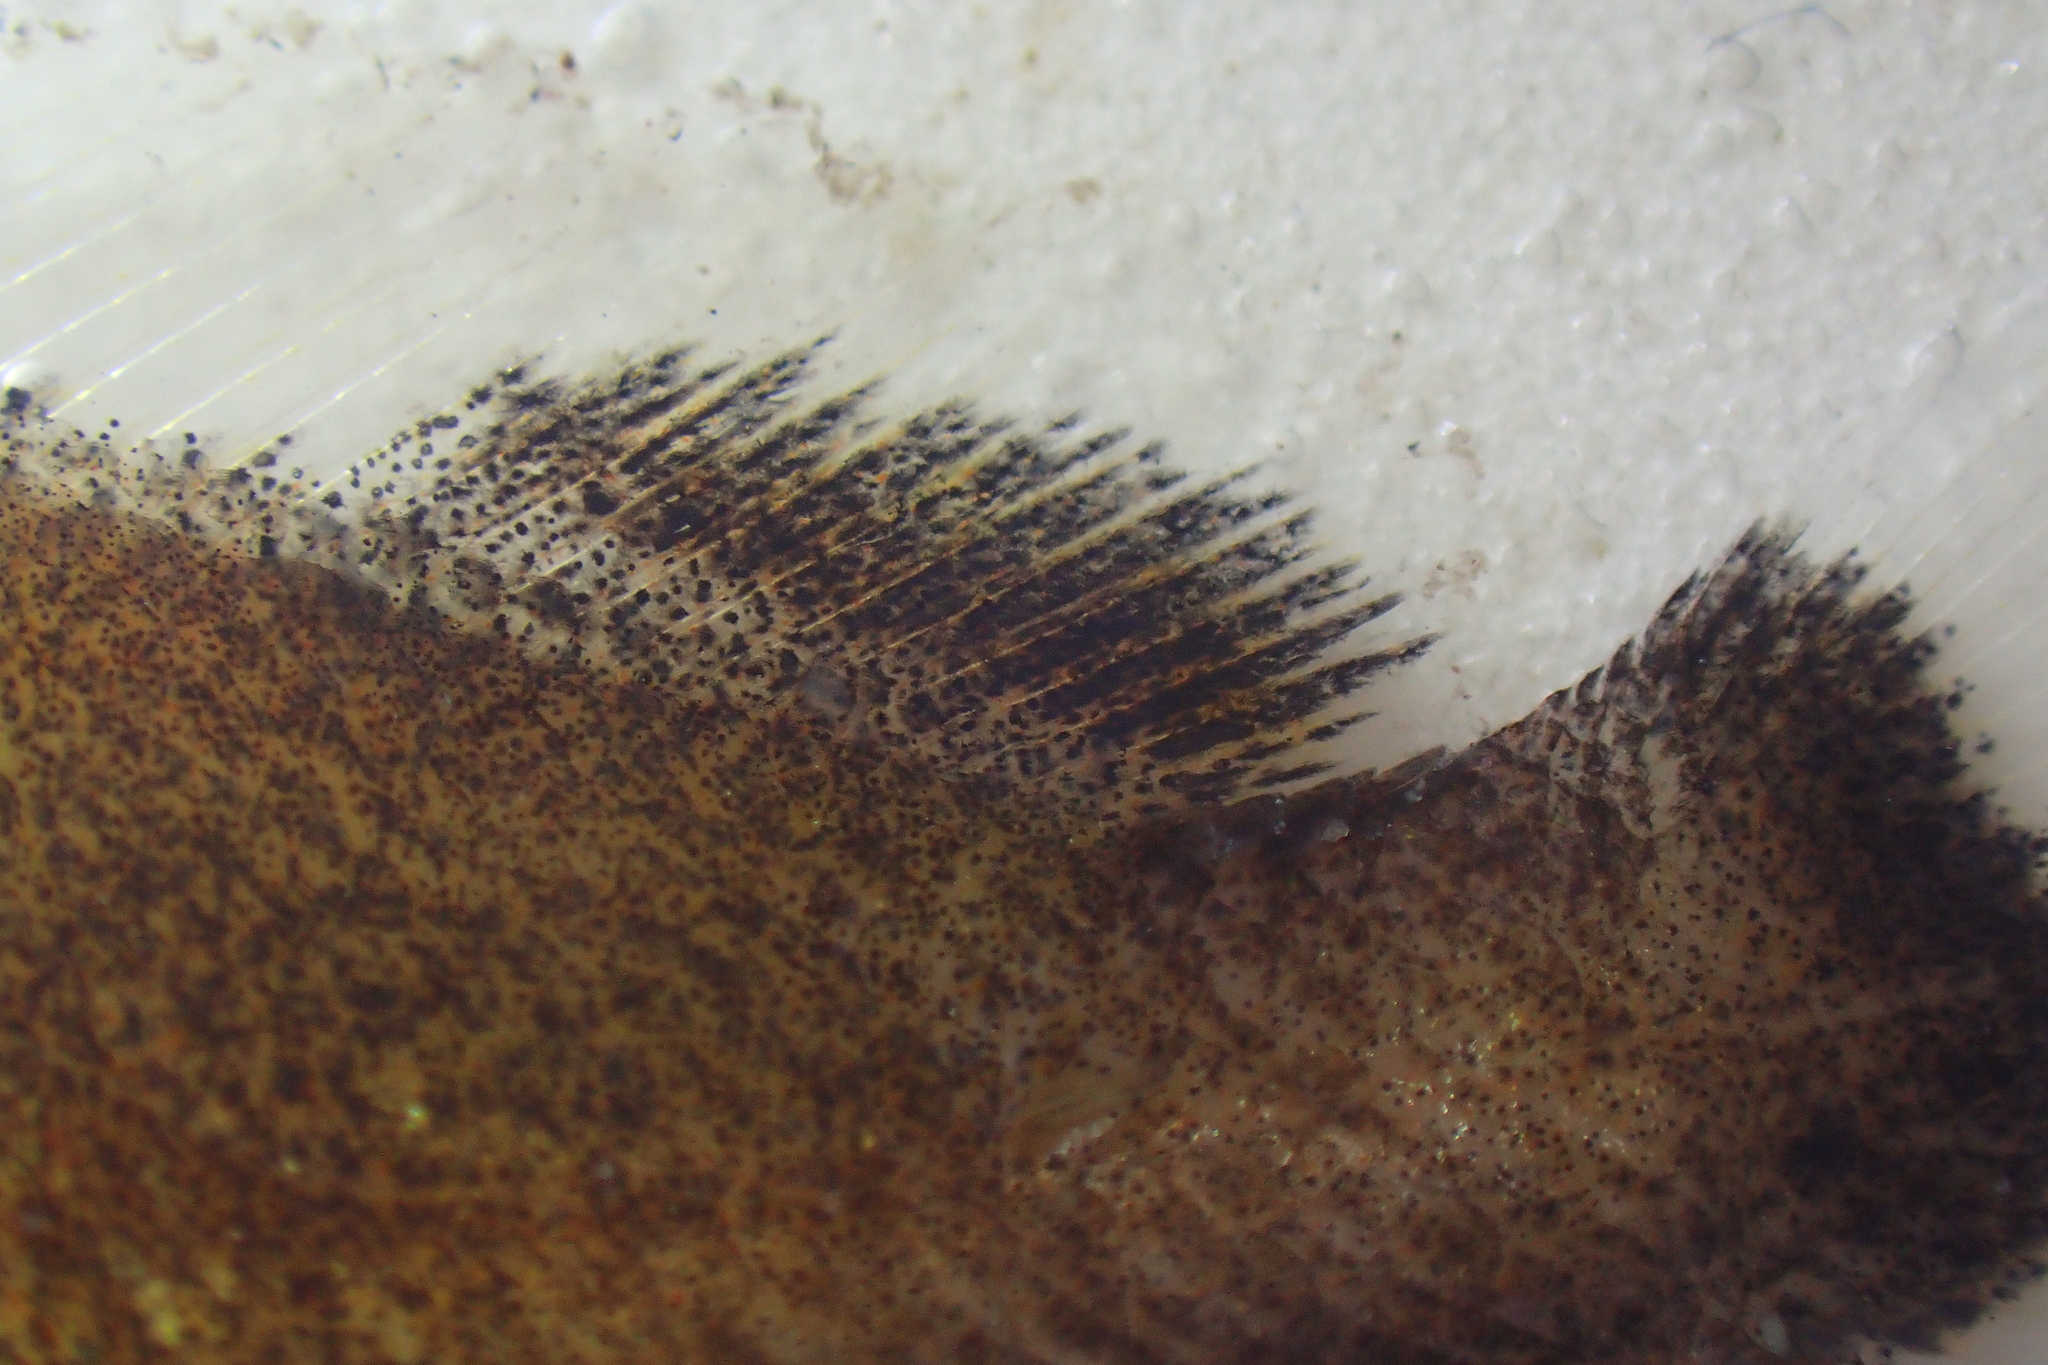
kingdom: Animalia
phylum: Chordata
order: Perciformes
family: Sciaenidae
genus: Umbrina
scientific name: Umbrina canariensis
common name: Baardman
